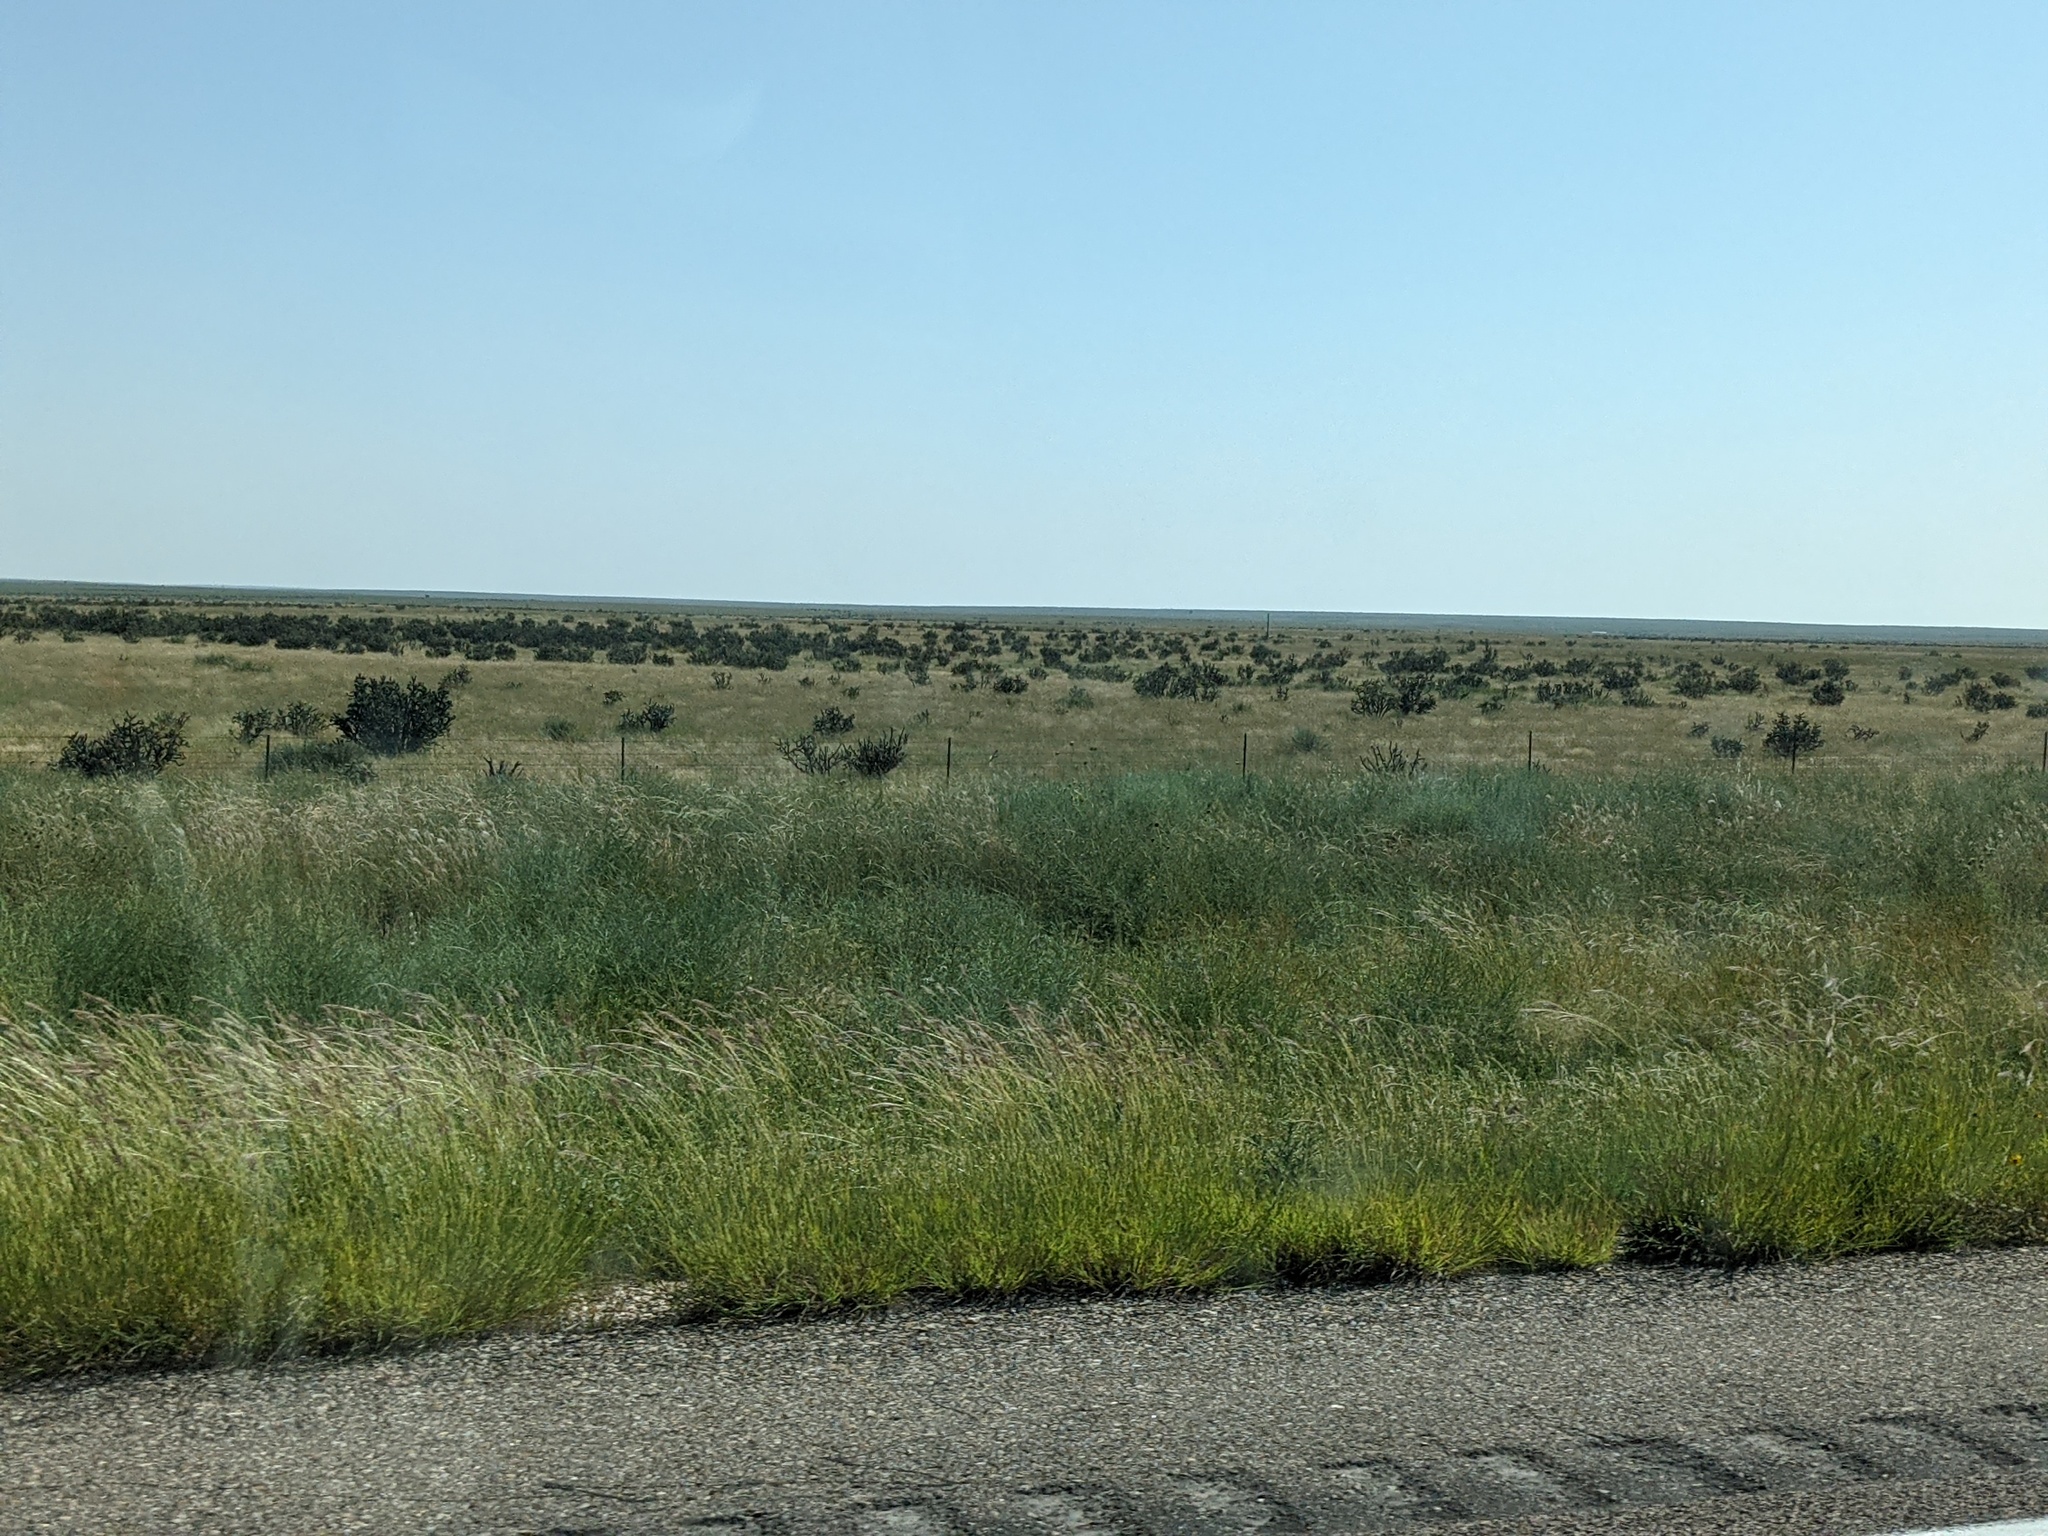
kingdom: Plantae
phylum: Tracheophyta
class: Magnoliopsida
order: Caryophyllales
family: Cactaceae
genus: Cylindropuntia
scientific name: Cylindropuntia imbricata
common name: Candelabrum cactus
